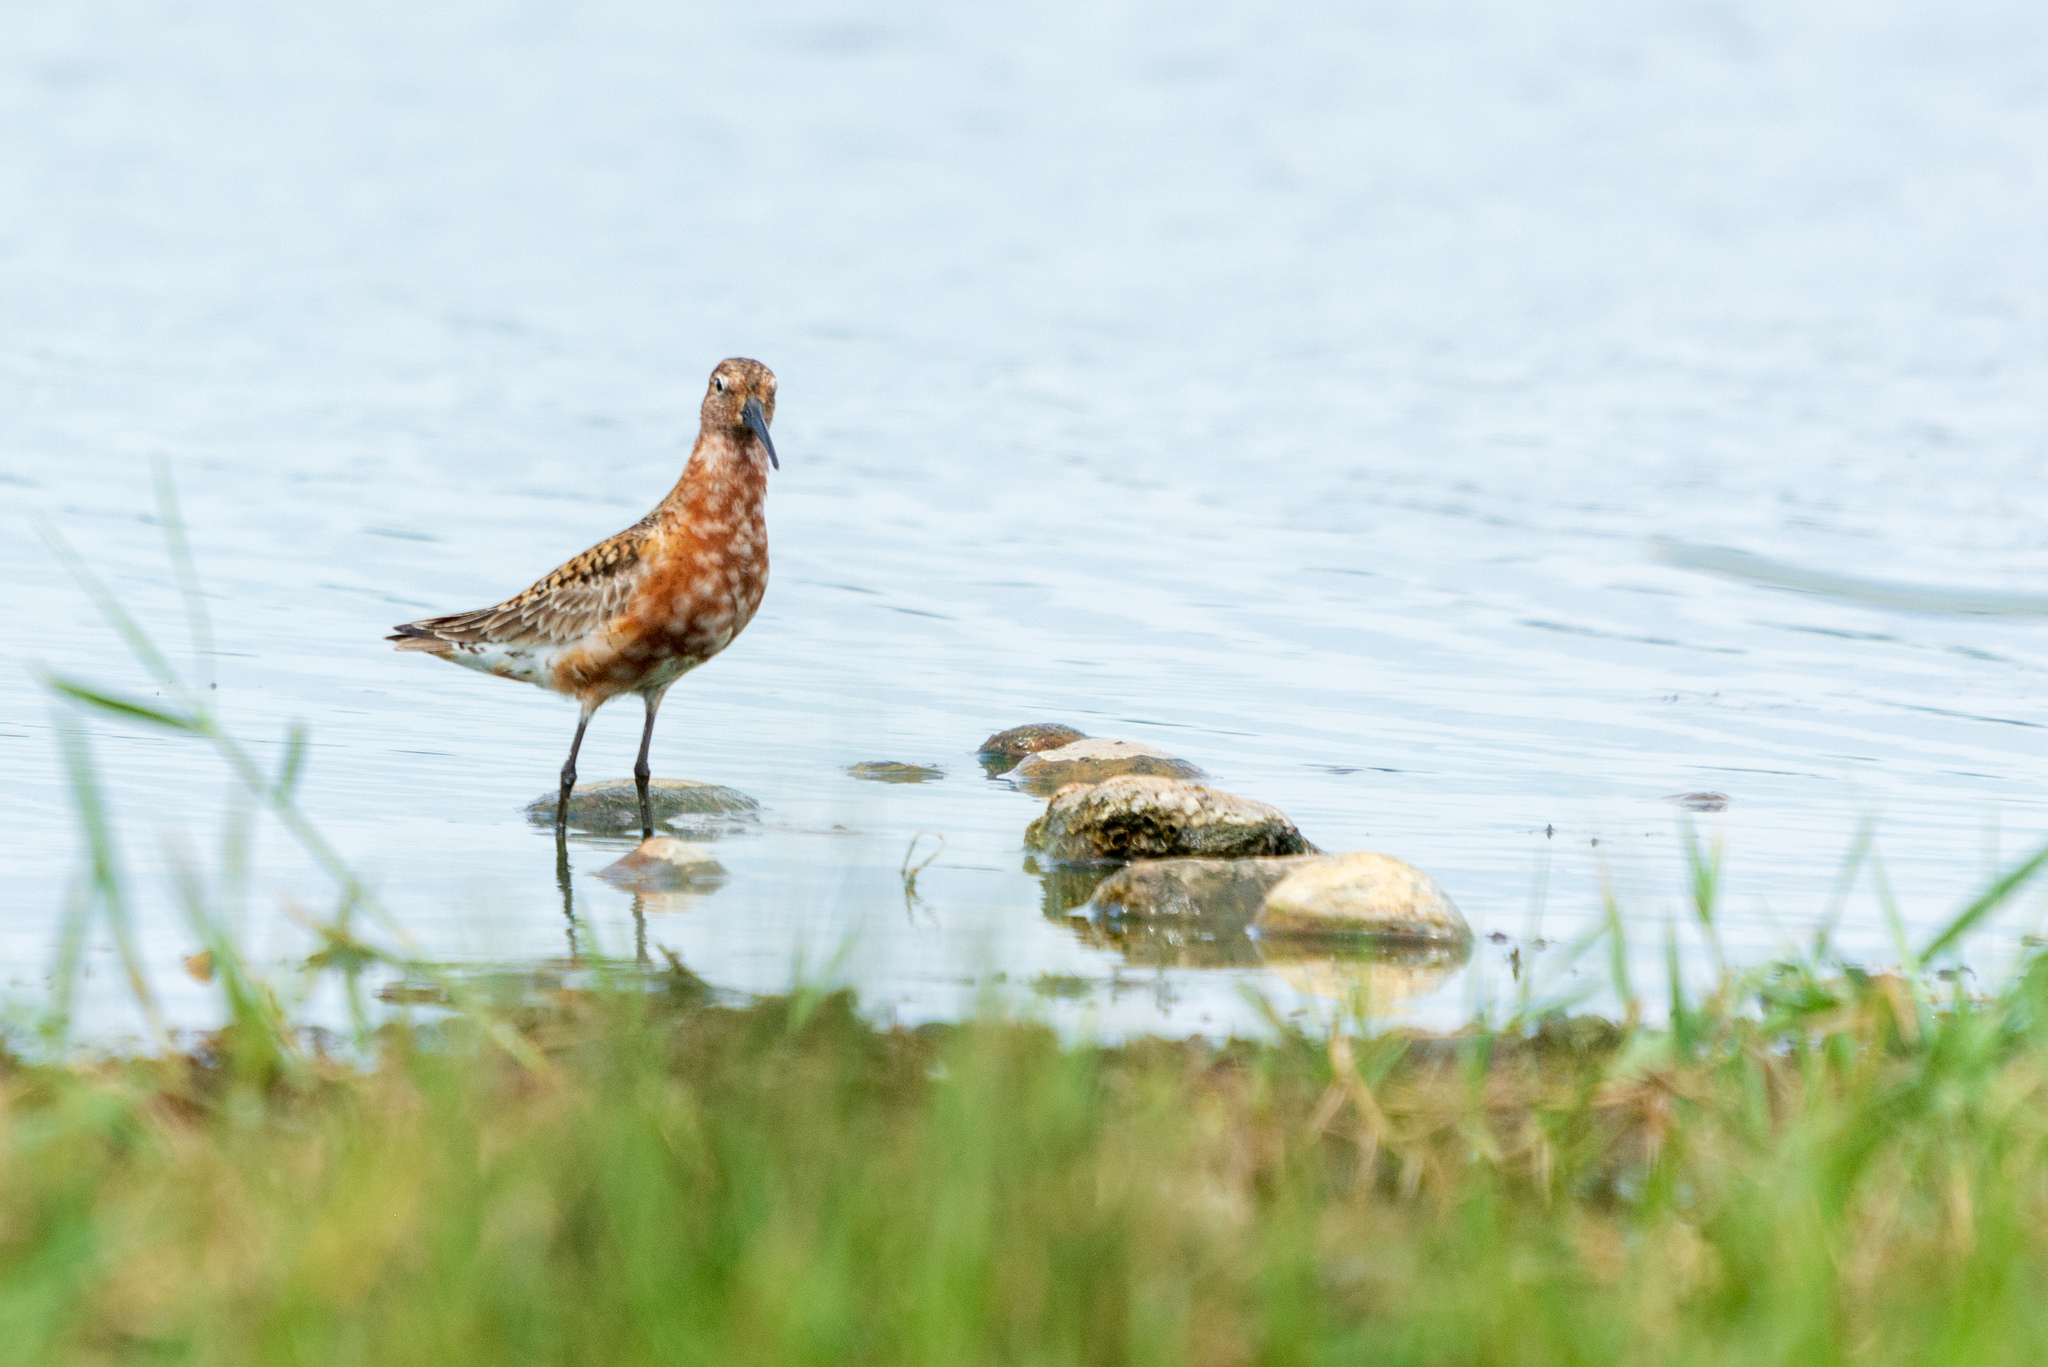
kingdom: Animalia
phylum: Chordata
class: Aves
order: Charadriiformes
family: Scolopacidae
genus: Calidris
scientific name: Calidris ferruginea
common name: Curlew sandpiper
